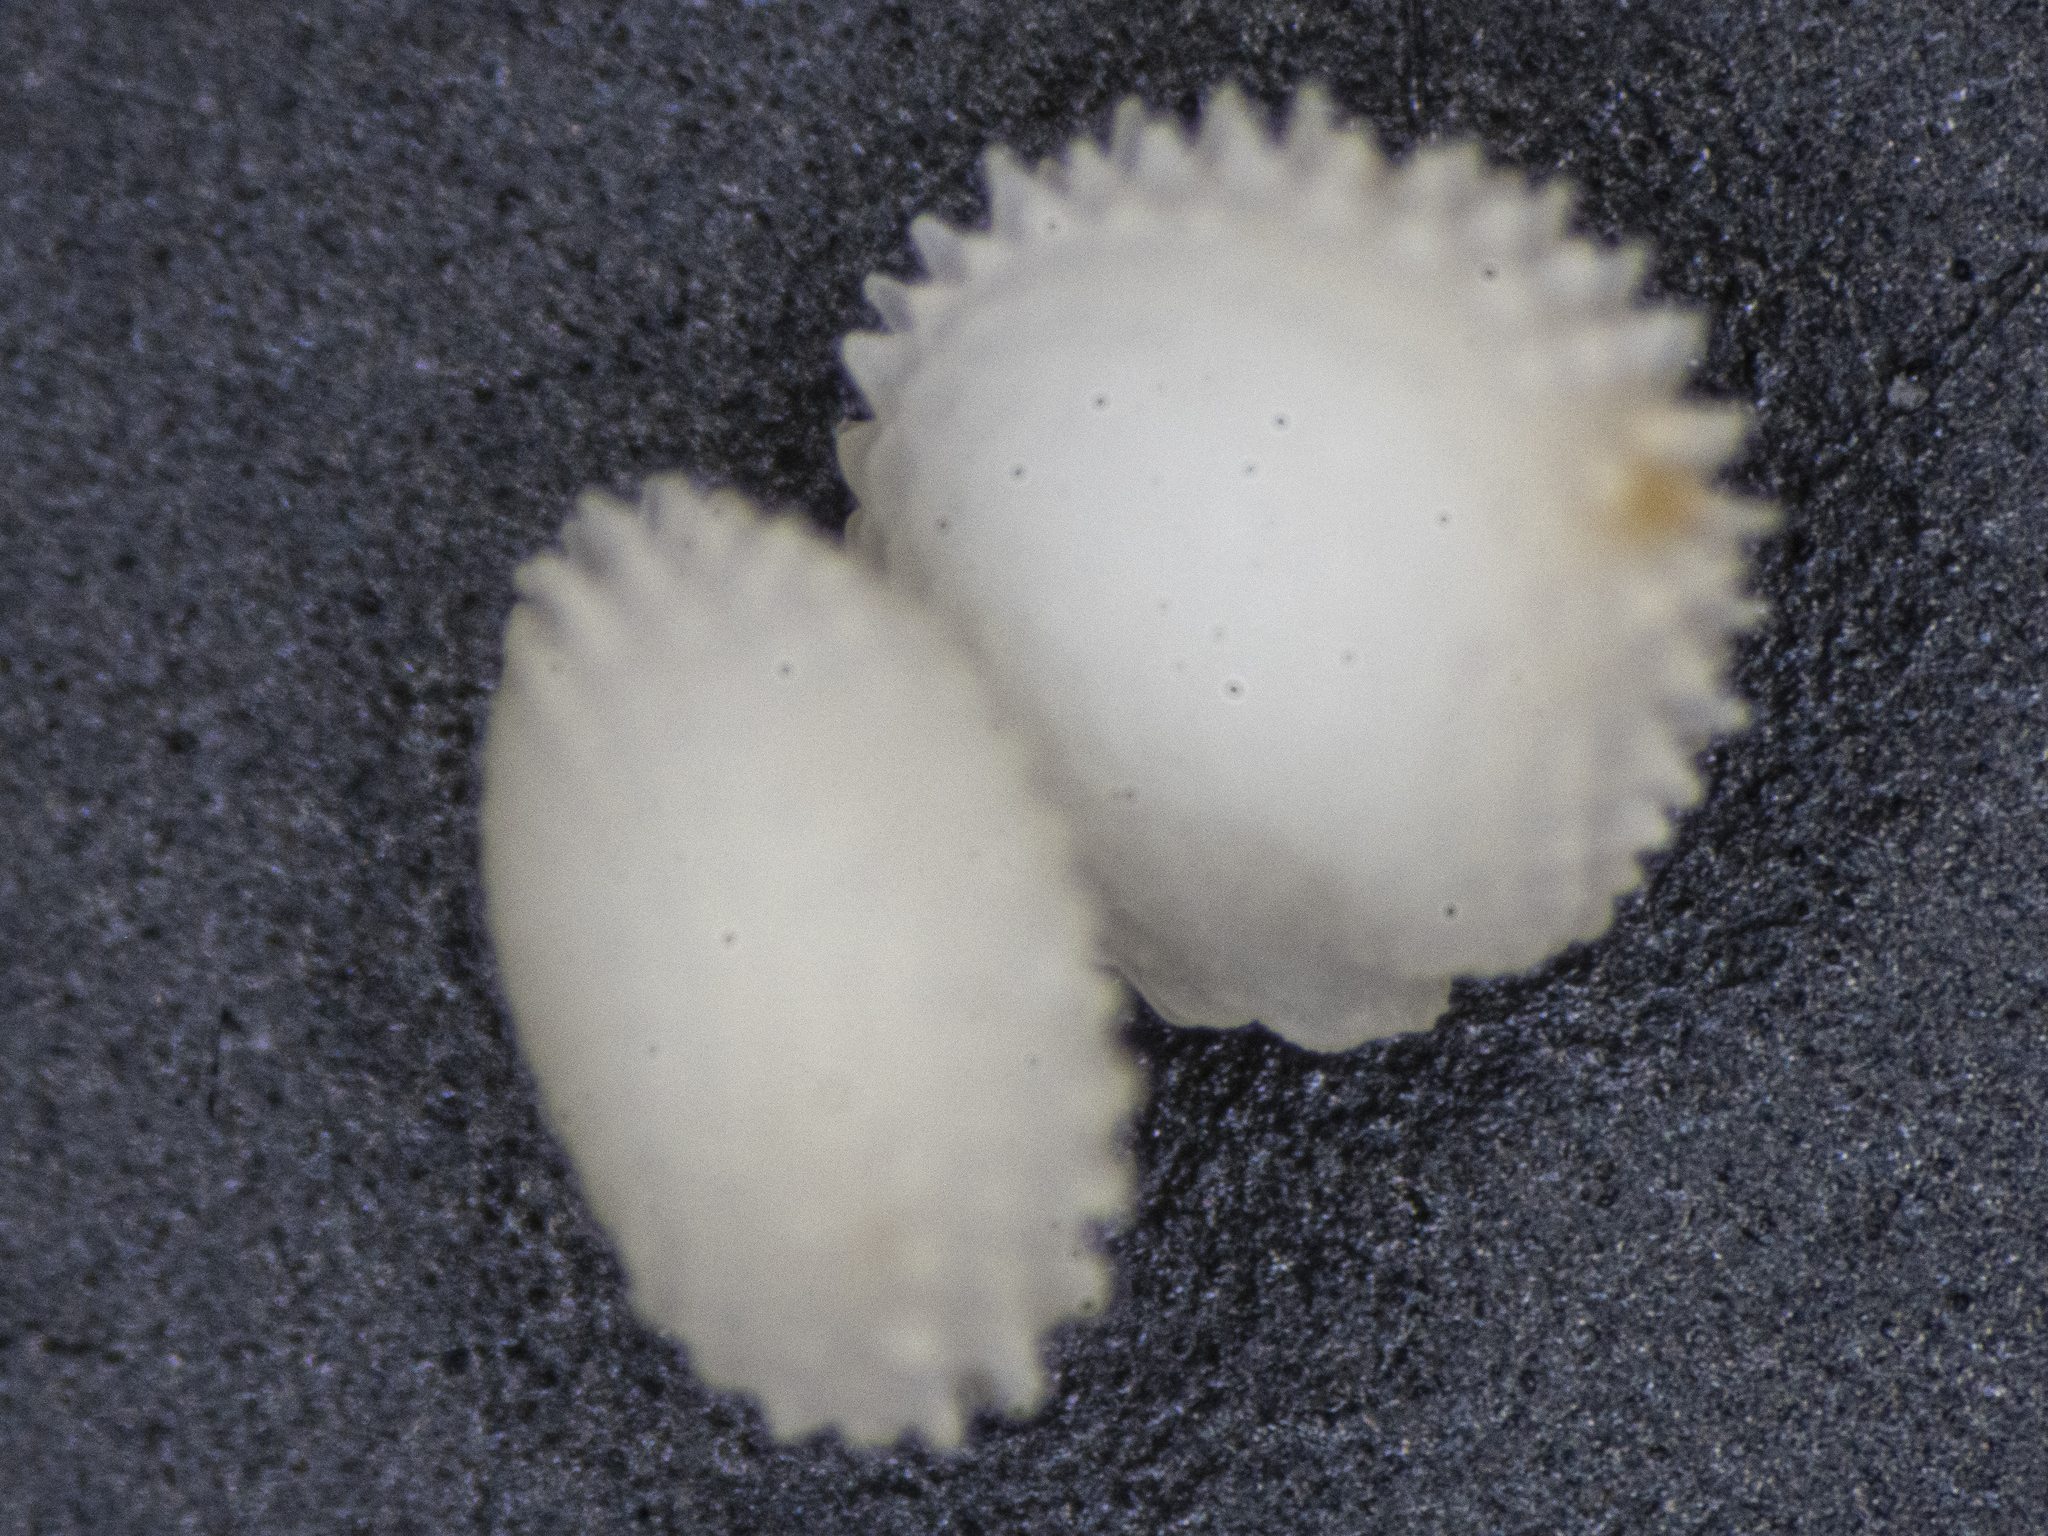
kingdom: Plantae
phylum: Tracheophyta
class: Magnoliopsida
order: Caryophyllales
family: Caryophyllaceae
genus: Stellaria
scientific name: Stellaria ruderalis
